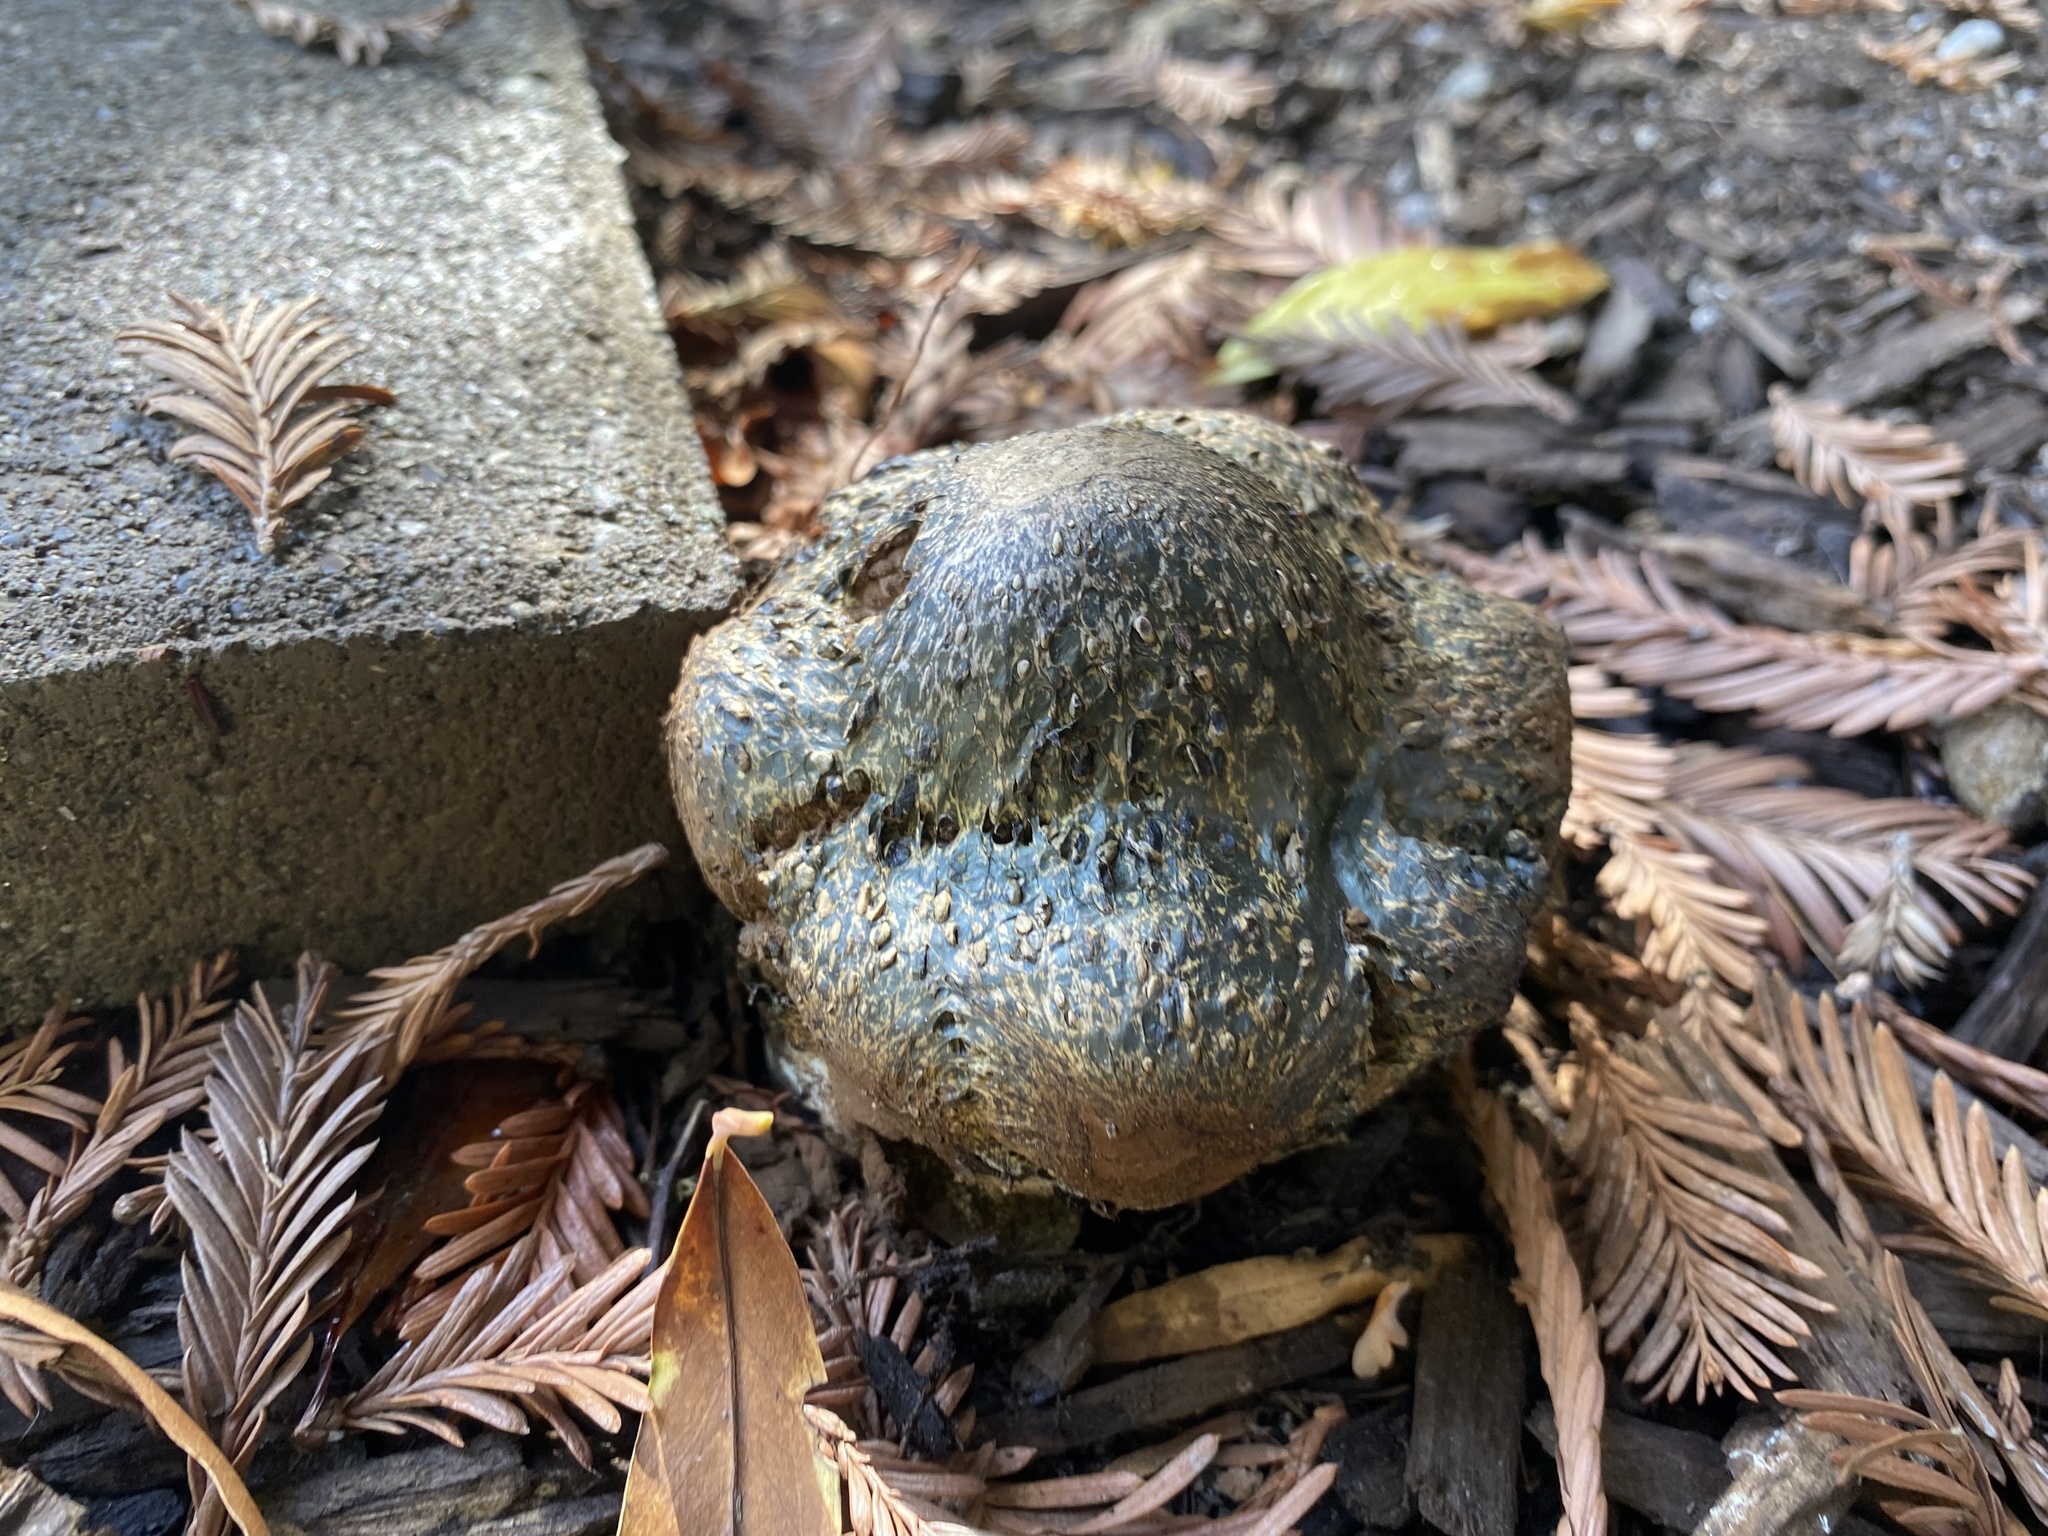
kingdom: Fungi
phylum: Basidiomycota
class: Agaricomycetes
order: Boletales
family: Sclerodermataceae
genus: Pisolithus
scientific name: Pisolithus arhizus
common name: Dyeball
